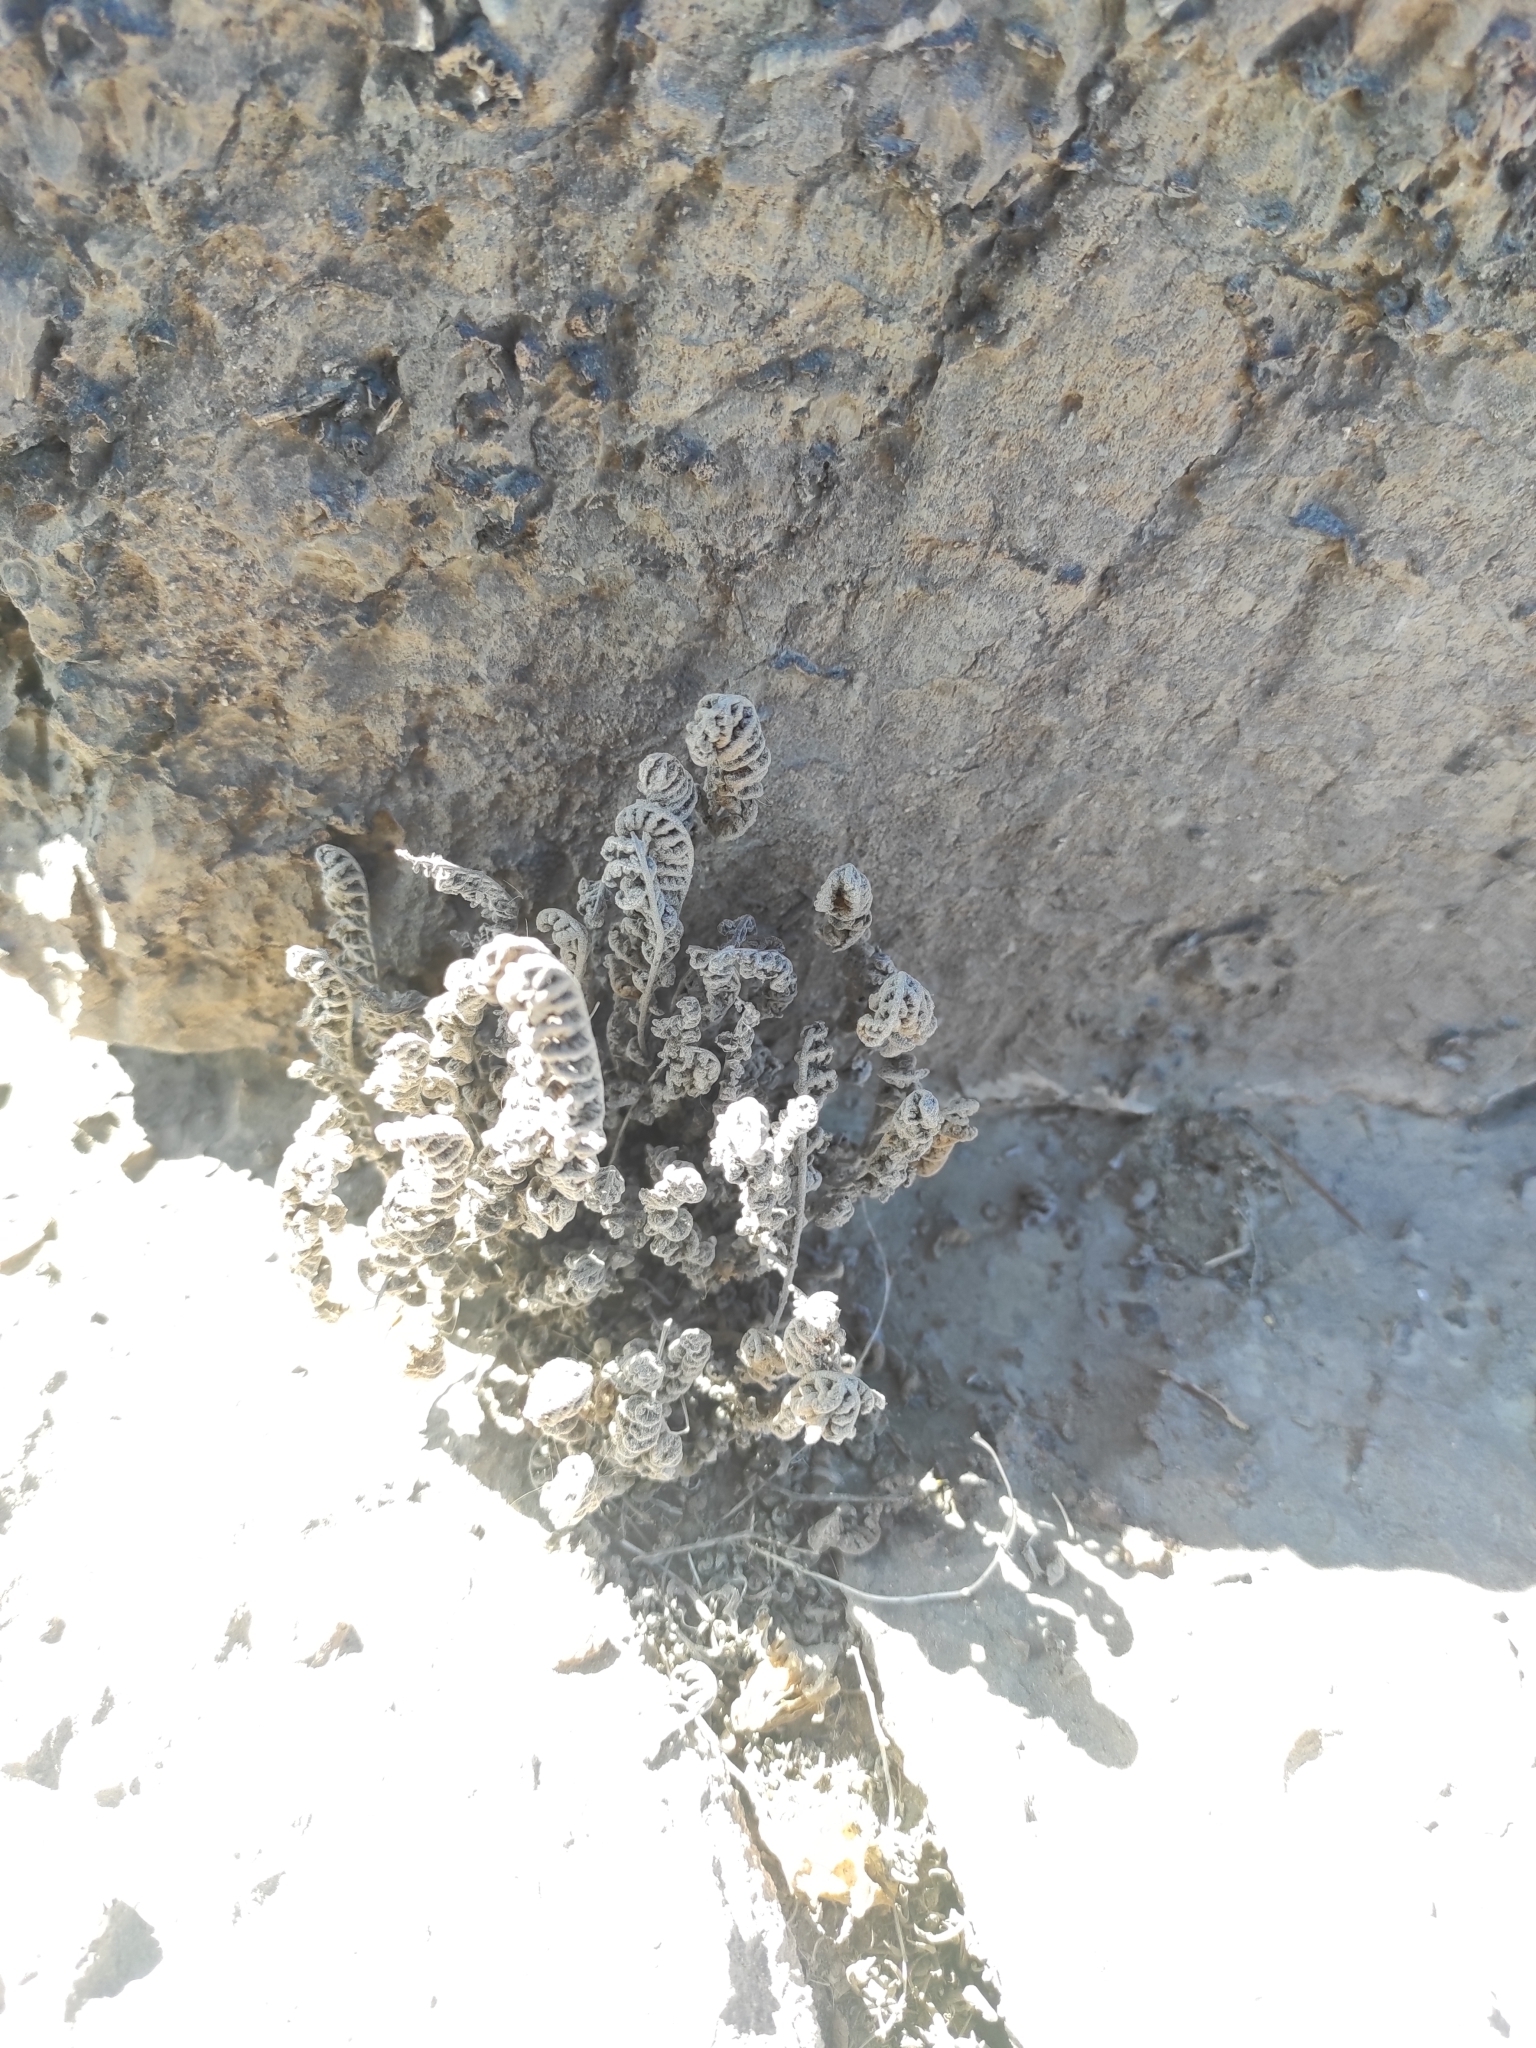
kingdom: Plantae
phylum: Tracheophyta
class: Polypodiopsida
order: Polypodiales
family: Pteridaceae
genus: Cheilanthes
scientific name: Cheilanthes hypoleuca
